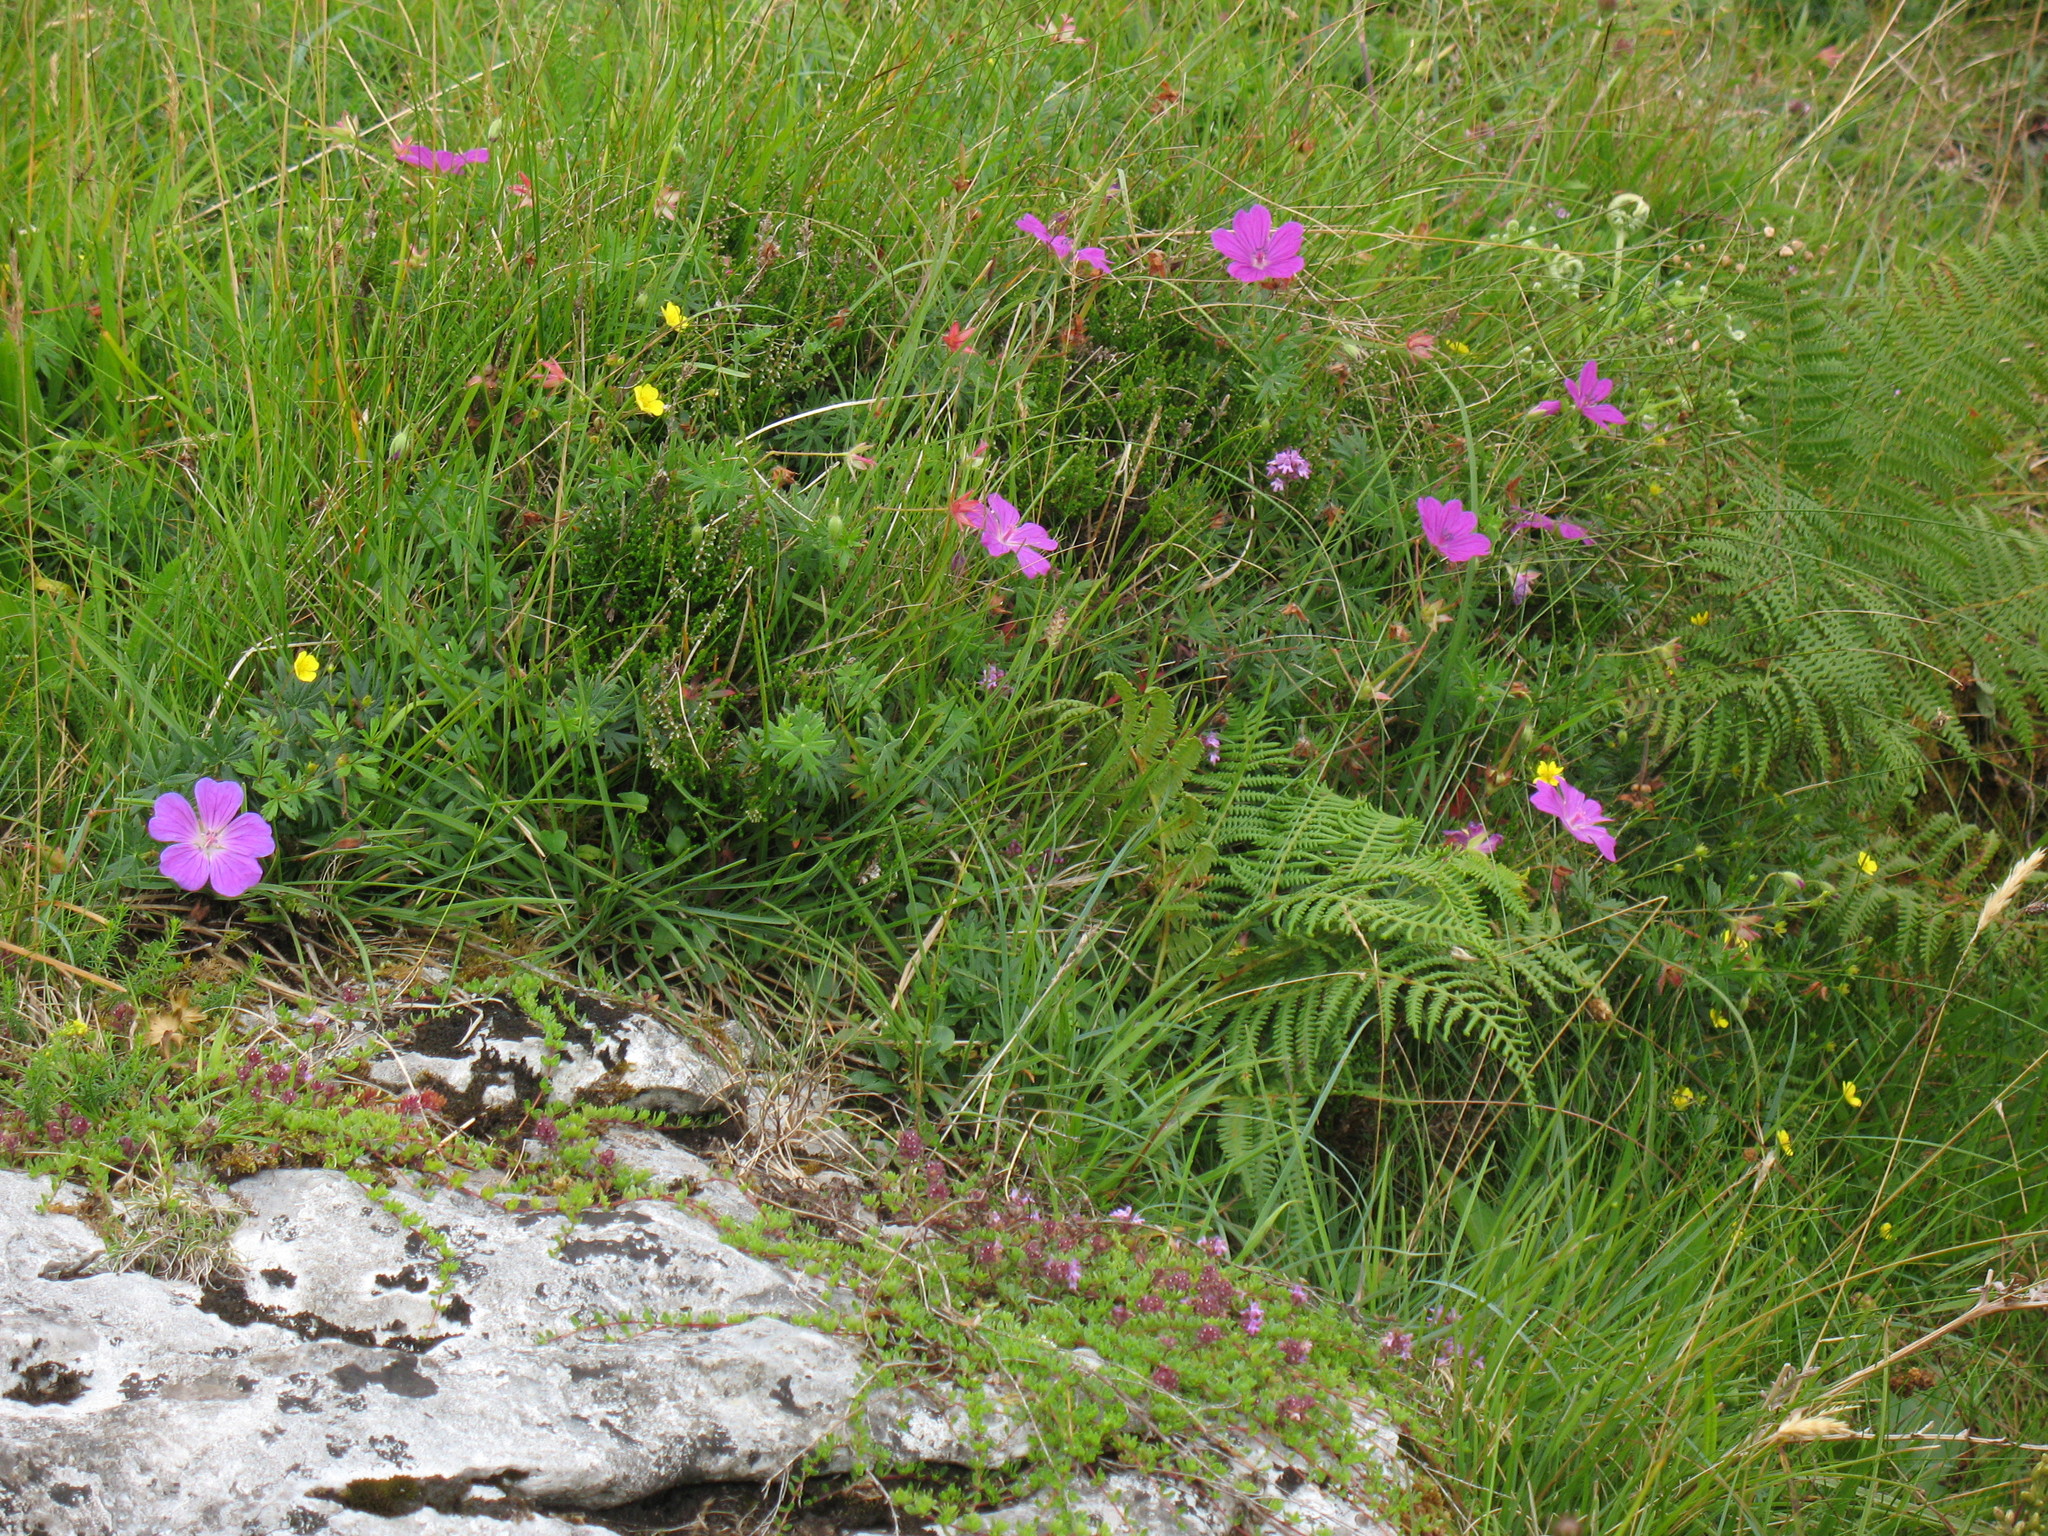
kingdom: Plantae
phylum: Tracheophyta
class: Magnoliopsida
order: Geraniales
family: Geraniaceae
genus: Geranium
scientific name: Geranium sanguineum
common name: Bloody crane's-bill
